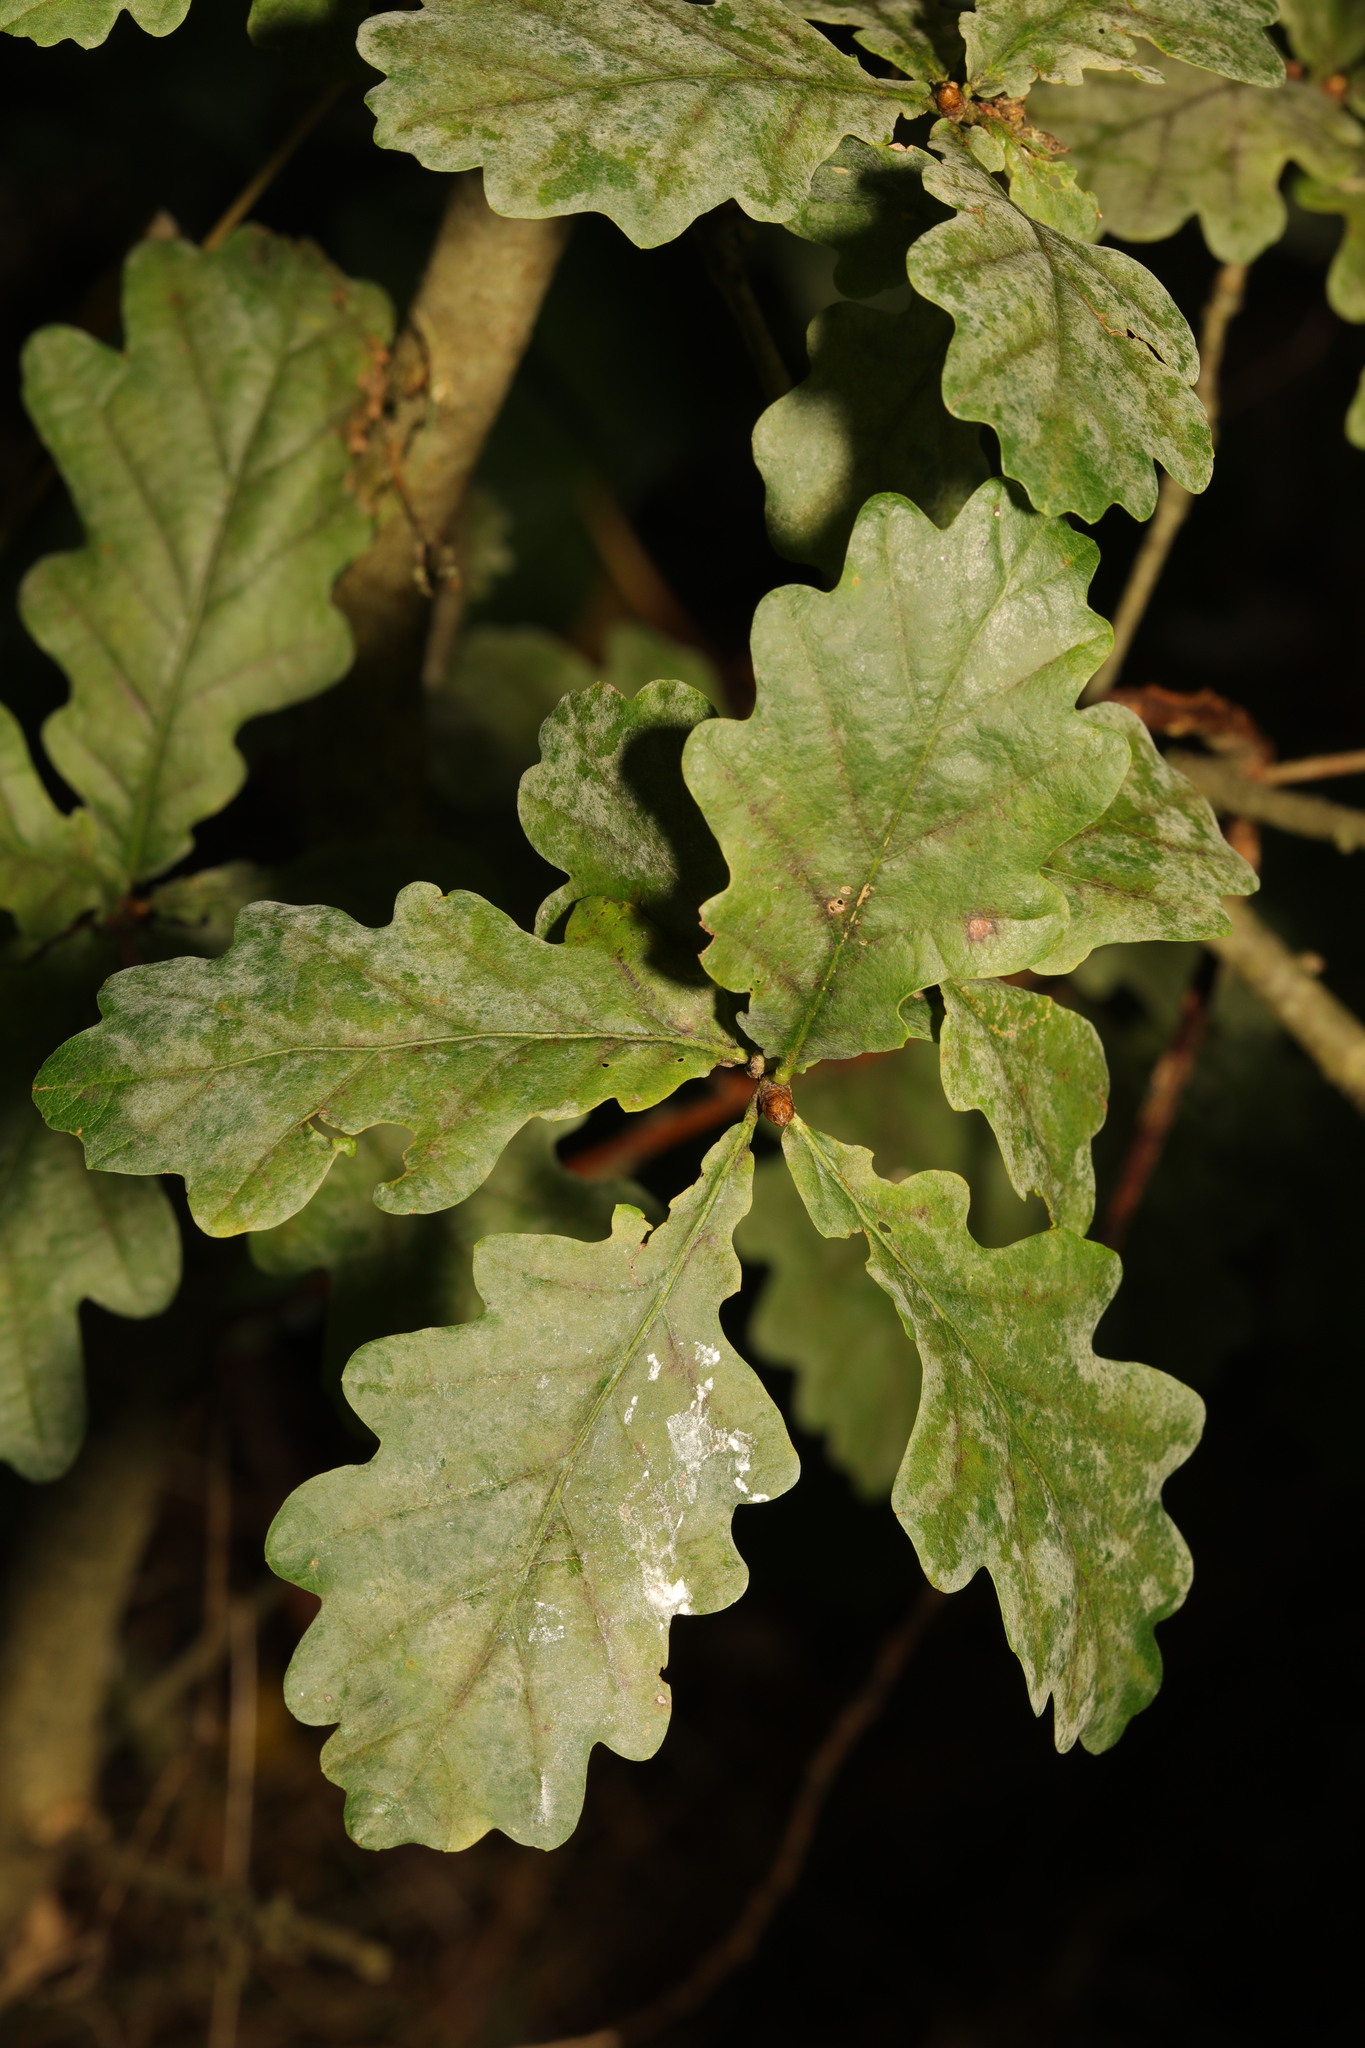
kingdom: Fungi
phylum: Ascomycota
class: Leotiomycetes
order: Helotiales
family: Erysiphaceae
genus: Erysiphe
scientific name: Erysiphe alphitoides
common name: Oak mildew
